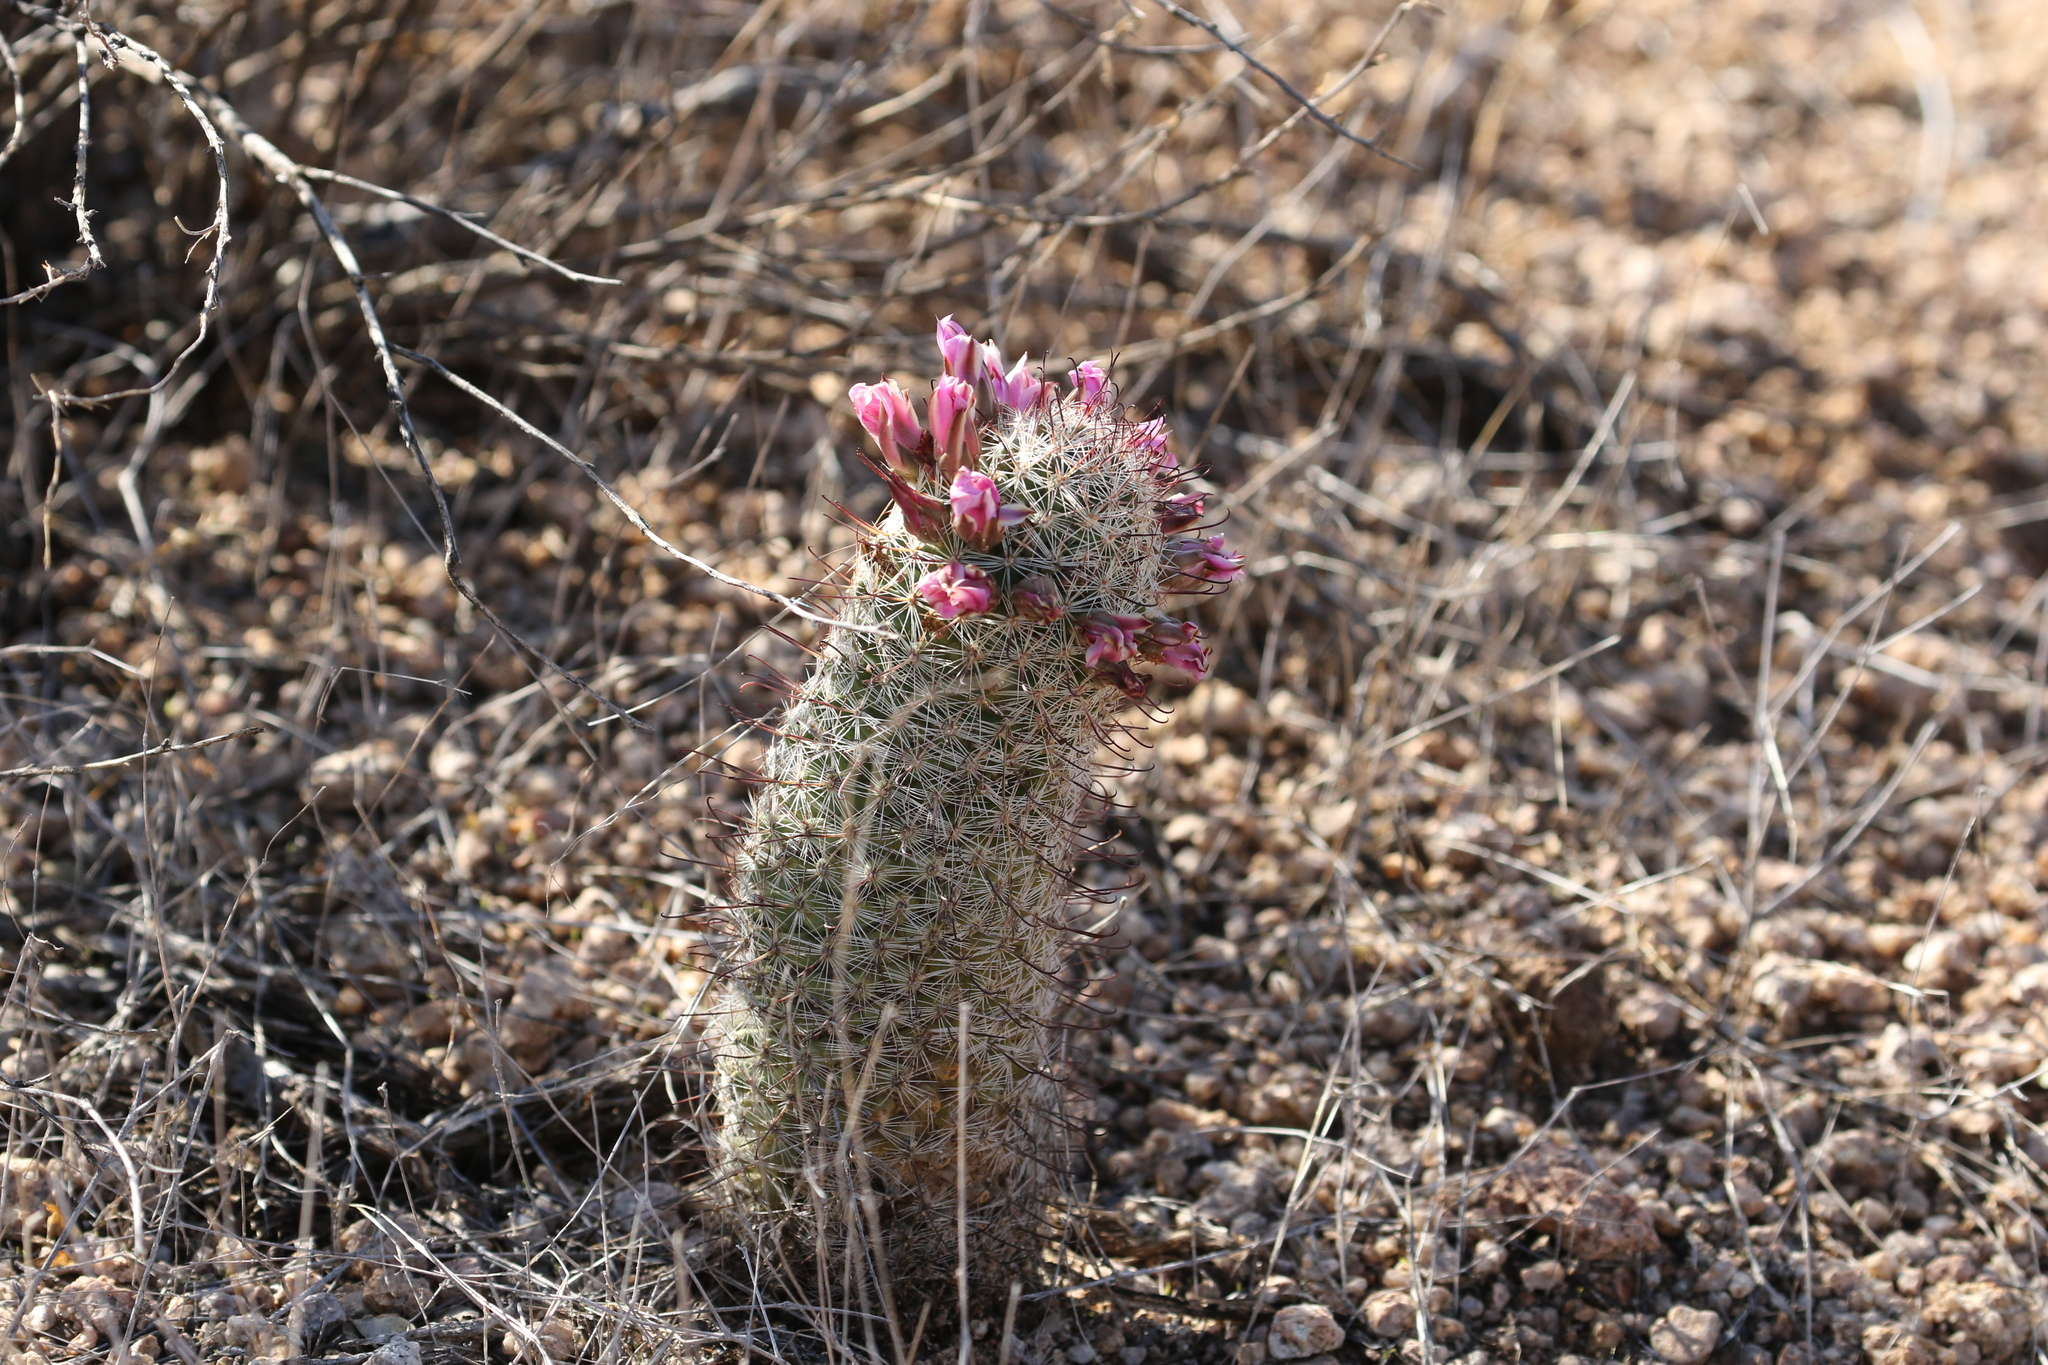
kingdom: Plantae
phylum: Tracheophyta
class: Magnoliopsida
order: Caryophyllales
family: Cactaceae
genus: Cochemiea
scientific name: Cochemiea grahamii
